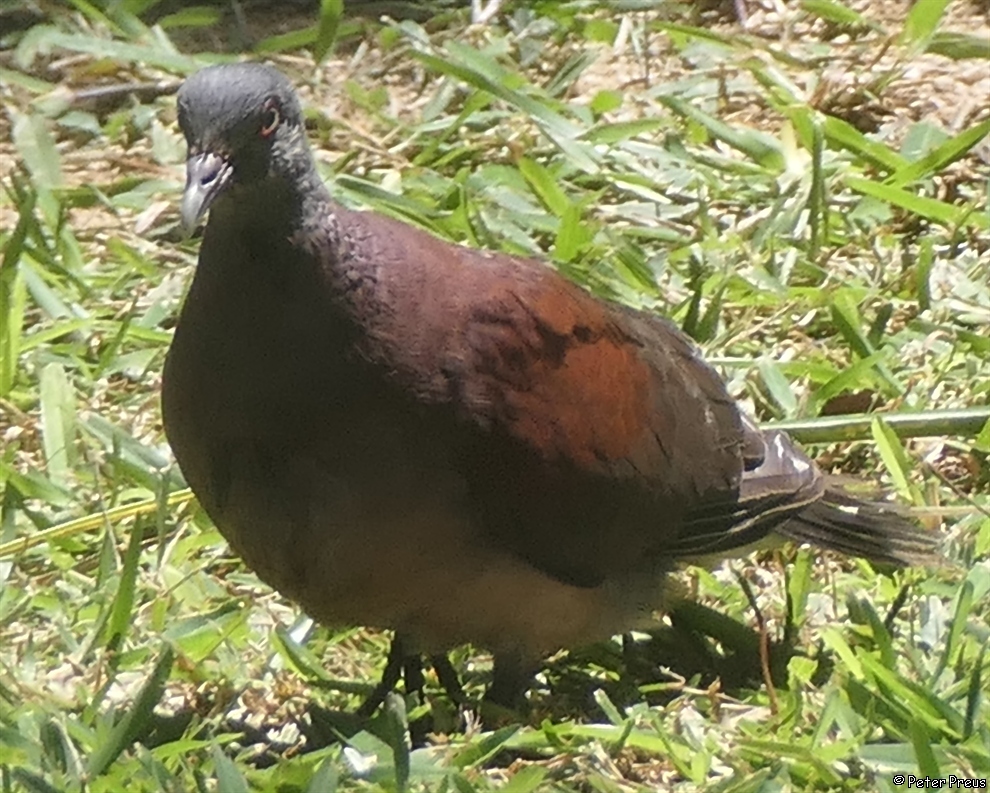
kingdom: Animalia
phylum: Chordata
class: Aves
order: Columbiformes
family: Columbidae
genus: Nesoenas
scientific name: Nesoenas picturatus
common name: Malagasy turtle dove
